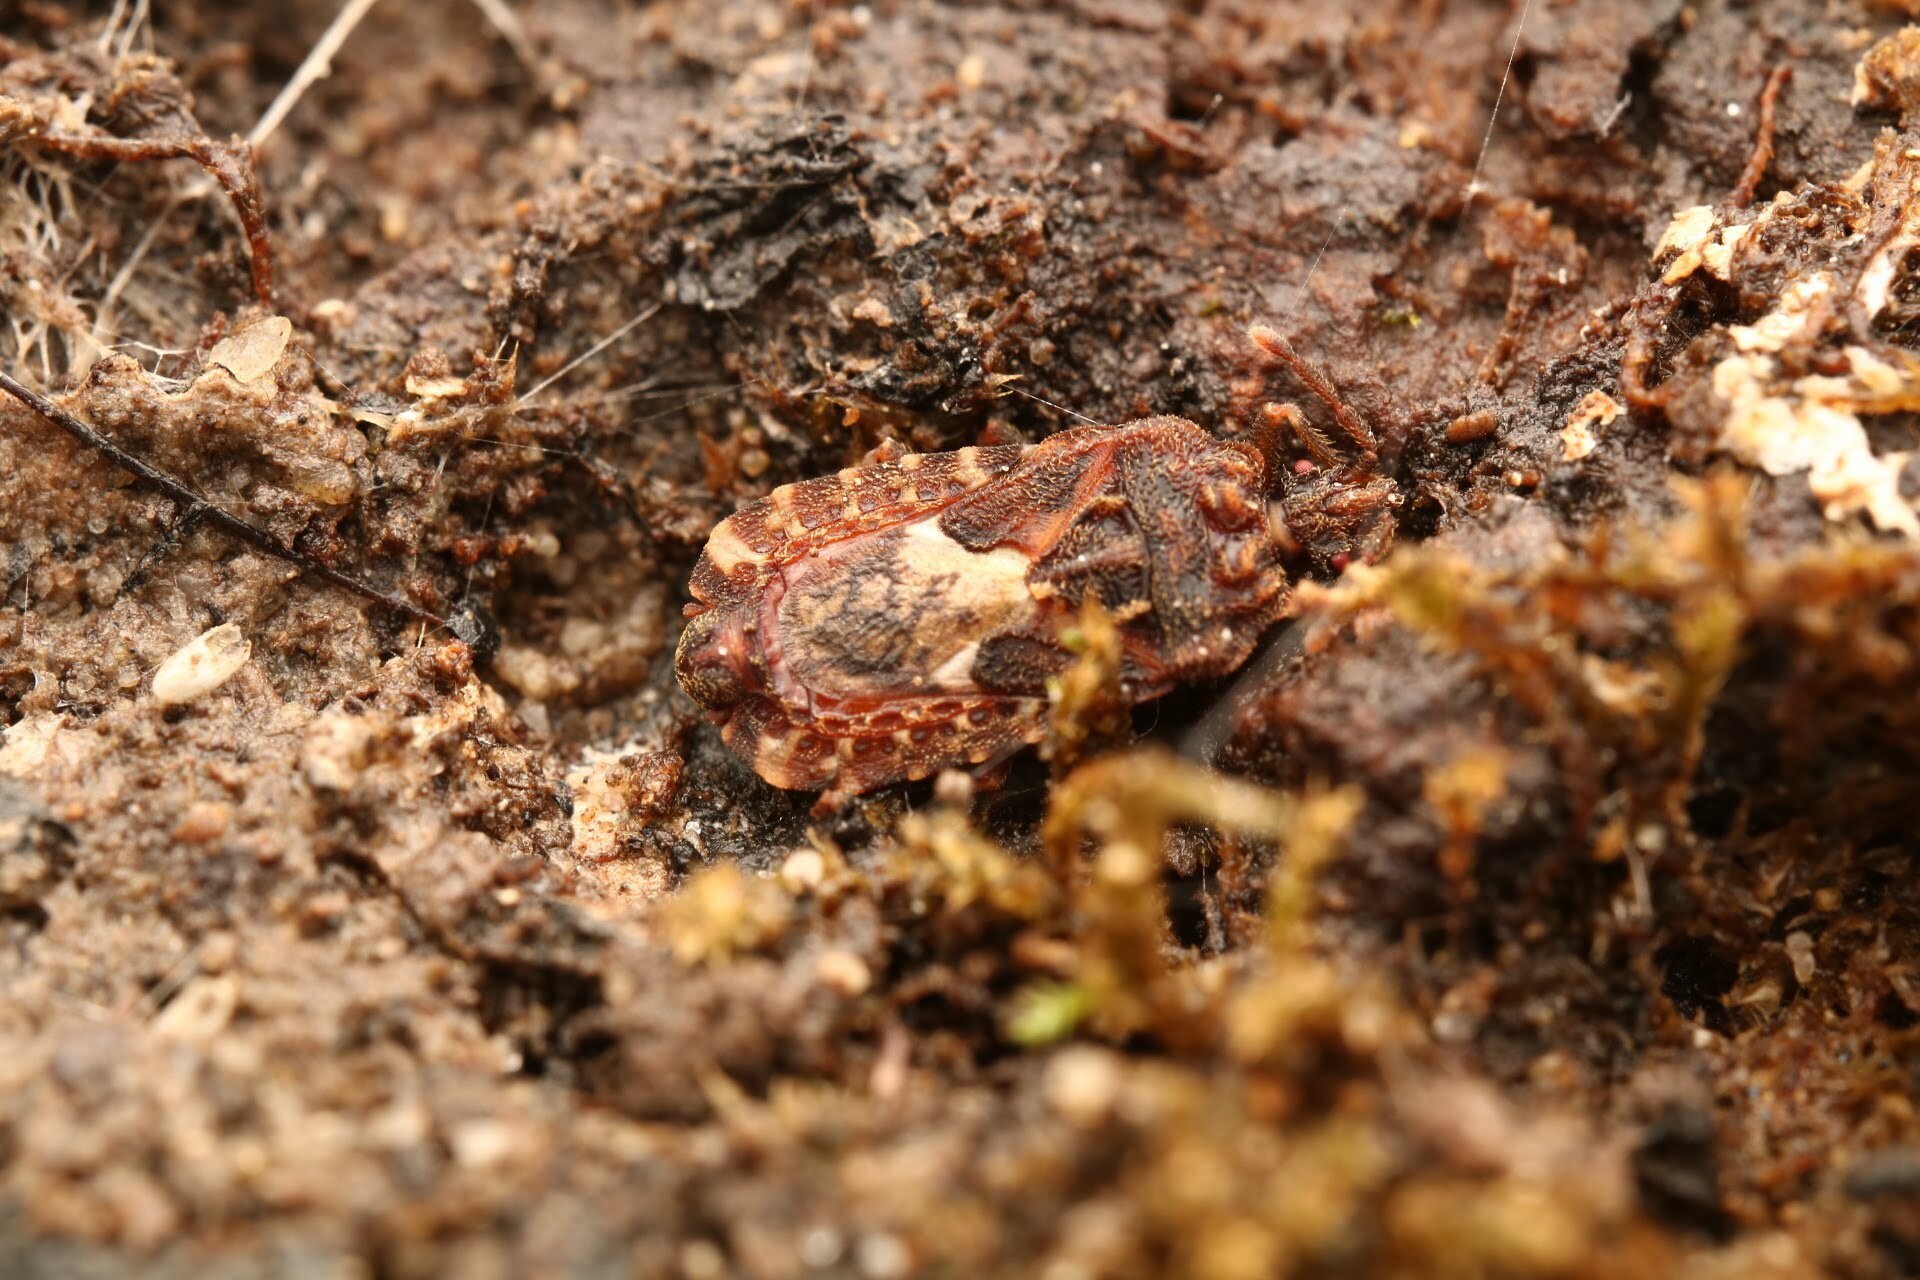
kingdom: Animalia
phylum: Arthropoda
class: Insecta
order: Hemiptera
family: Aradidae
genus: Mezira
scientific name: Mezira
